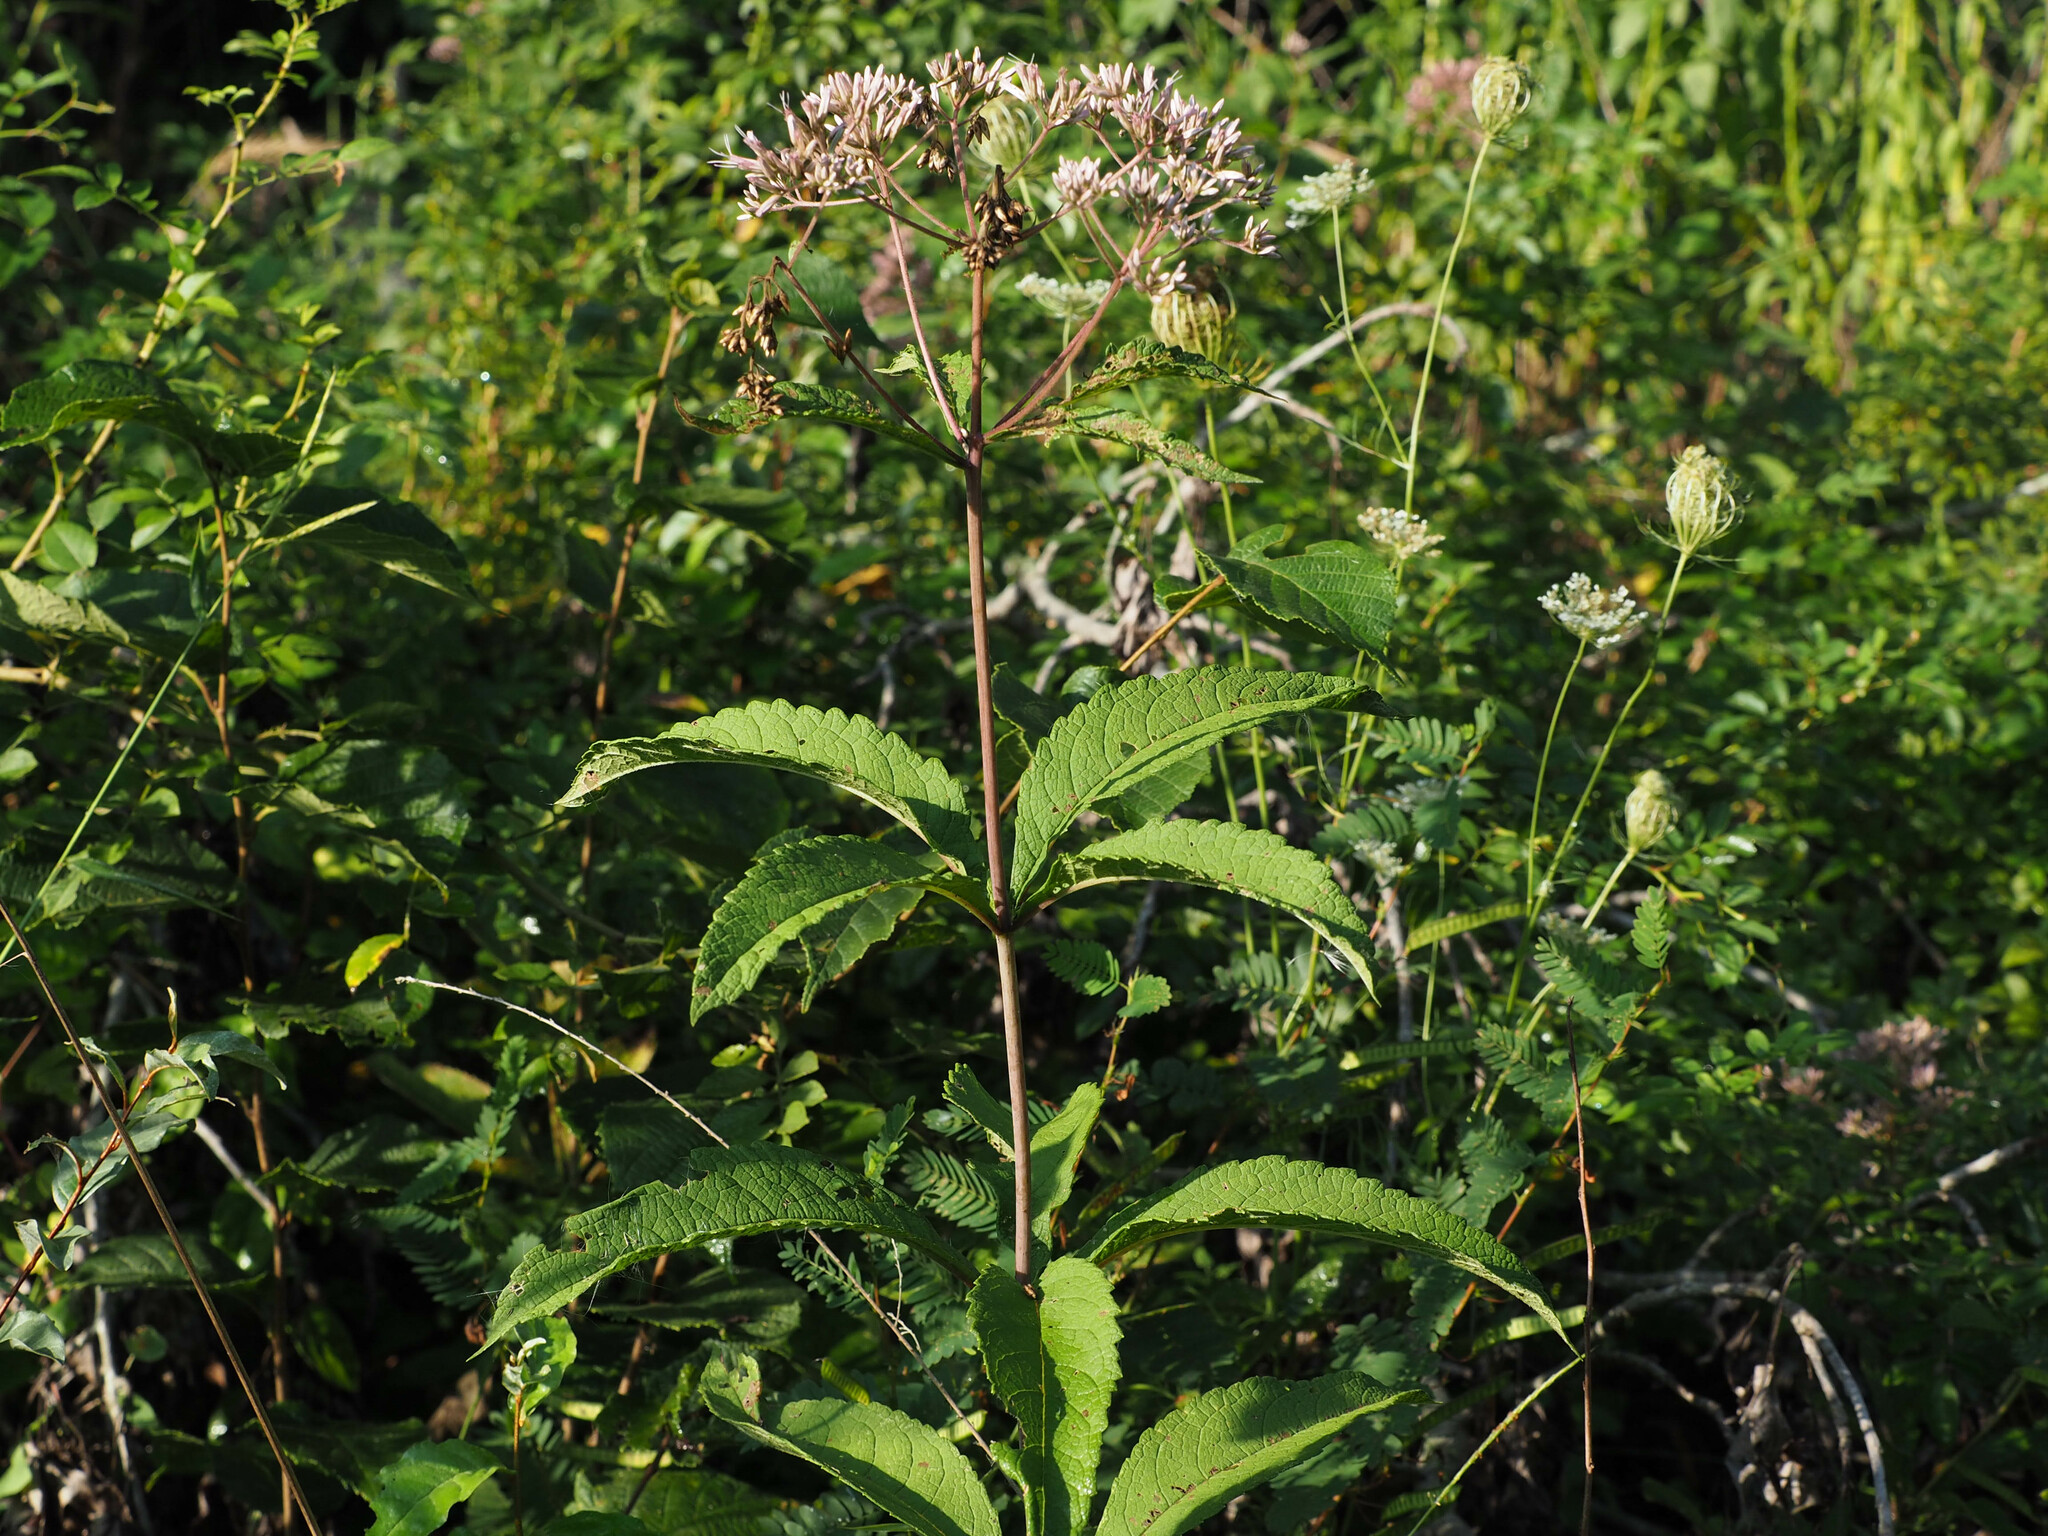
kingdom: Plantae
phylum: Tracheophyta
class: Magnoliopsida
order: Asterales
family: Asteraceae
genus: Eutrochium
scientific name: Eutrochium fistulosum
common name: Trumpetweed
